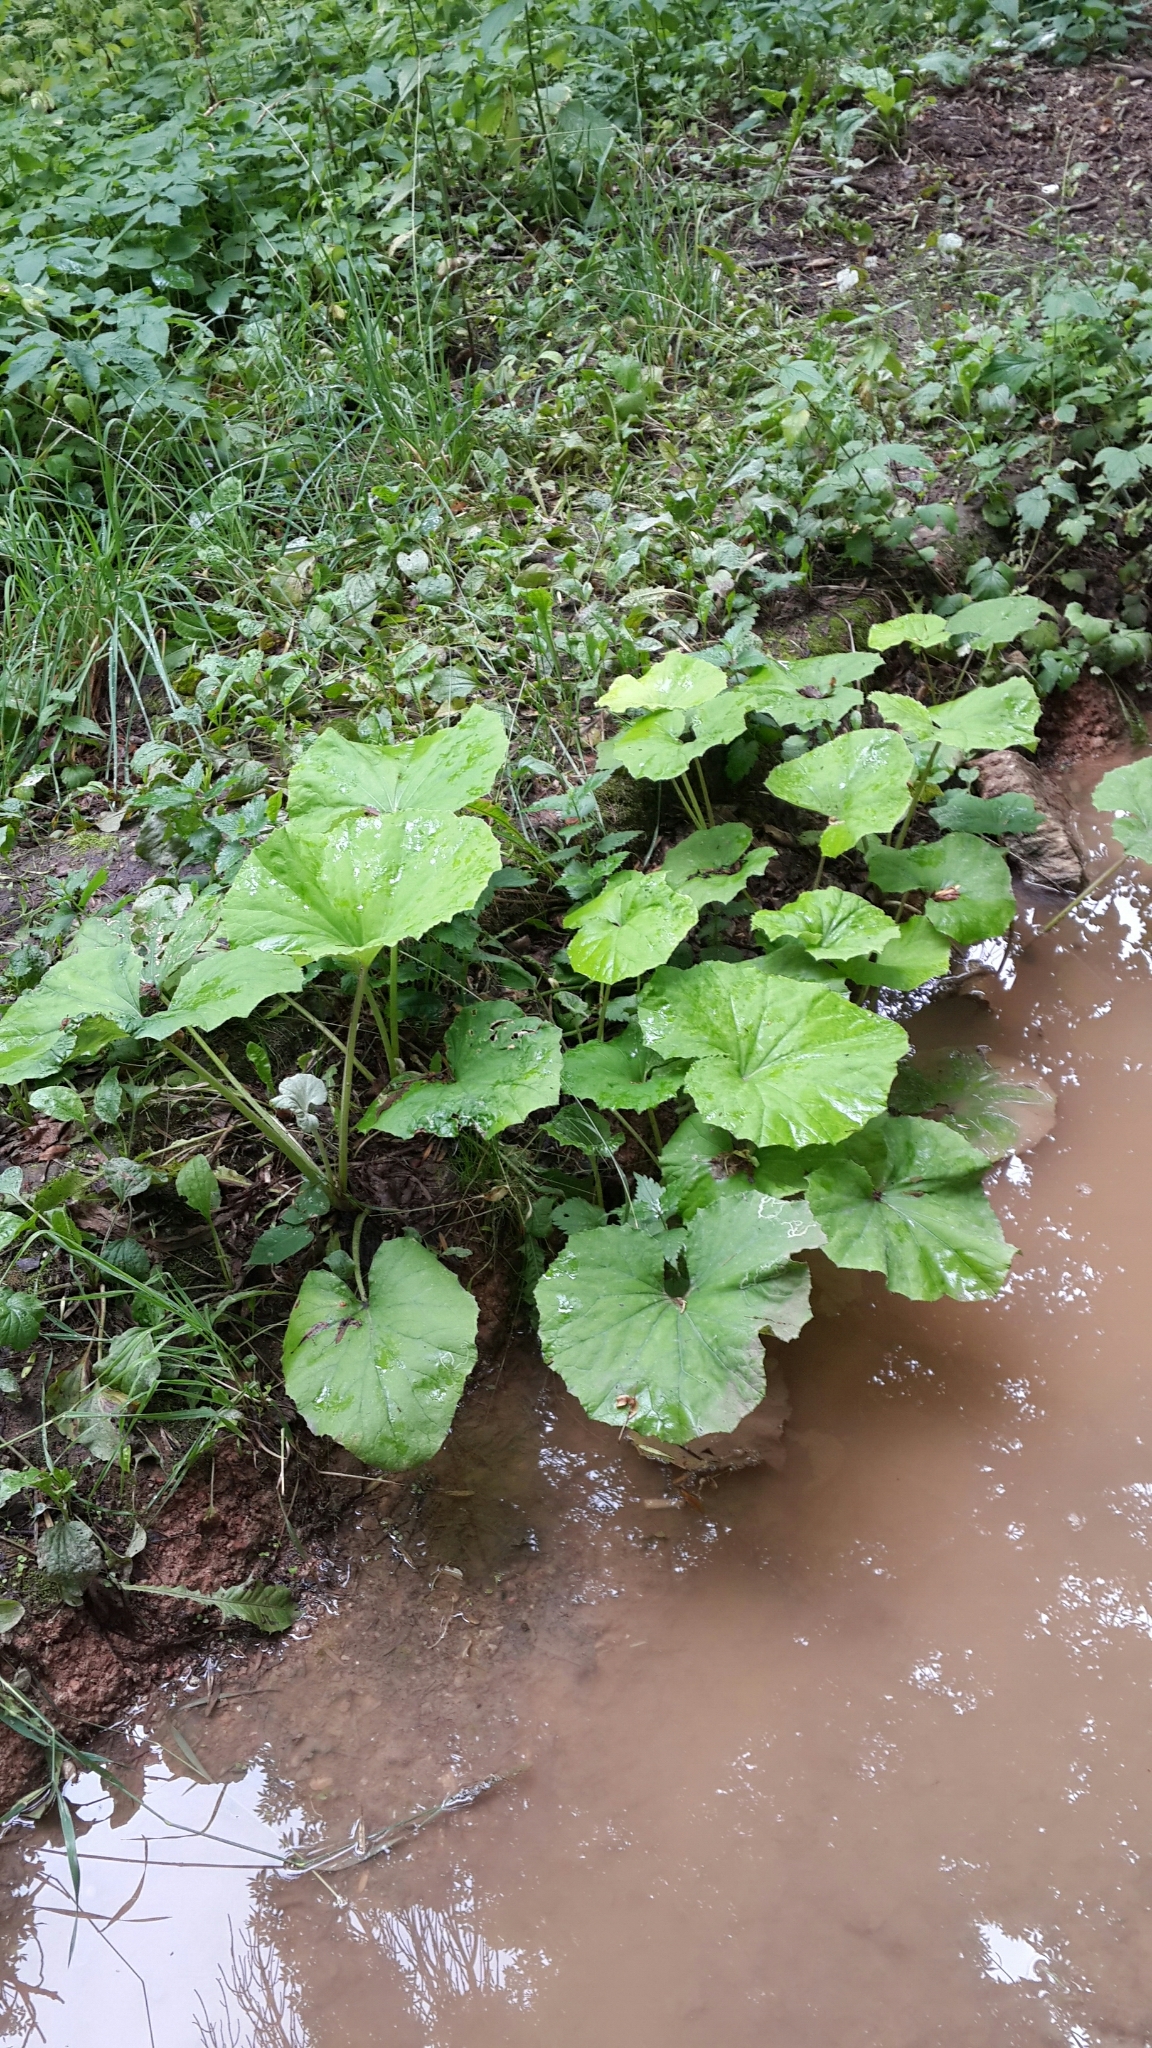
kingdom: Plantae
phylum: Tracheophyta
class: Magnoliopsida
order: Asterales
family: Asteraceae
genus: Tussilago
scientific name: Tussilago farfara
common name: Coltsfoot
